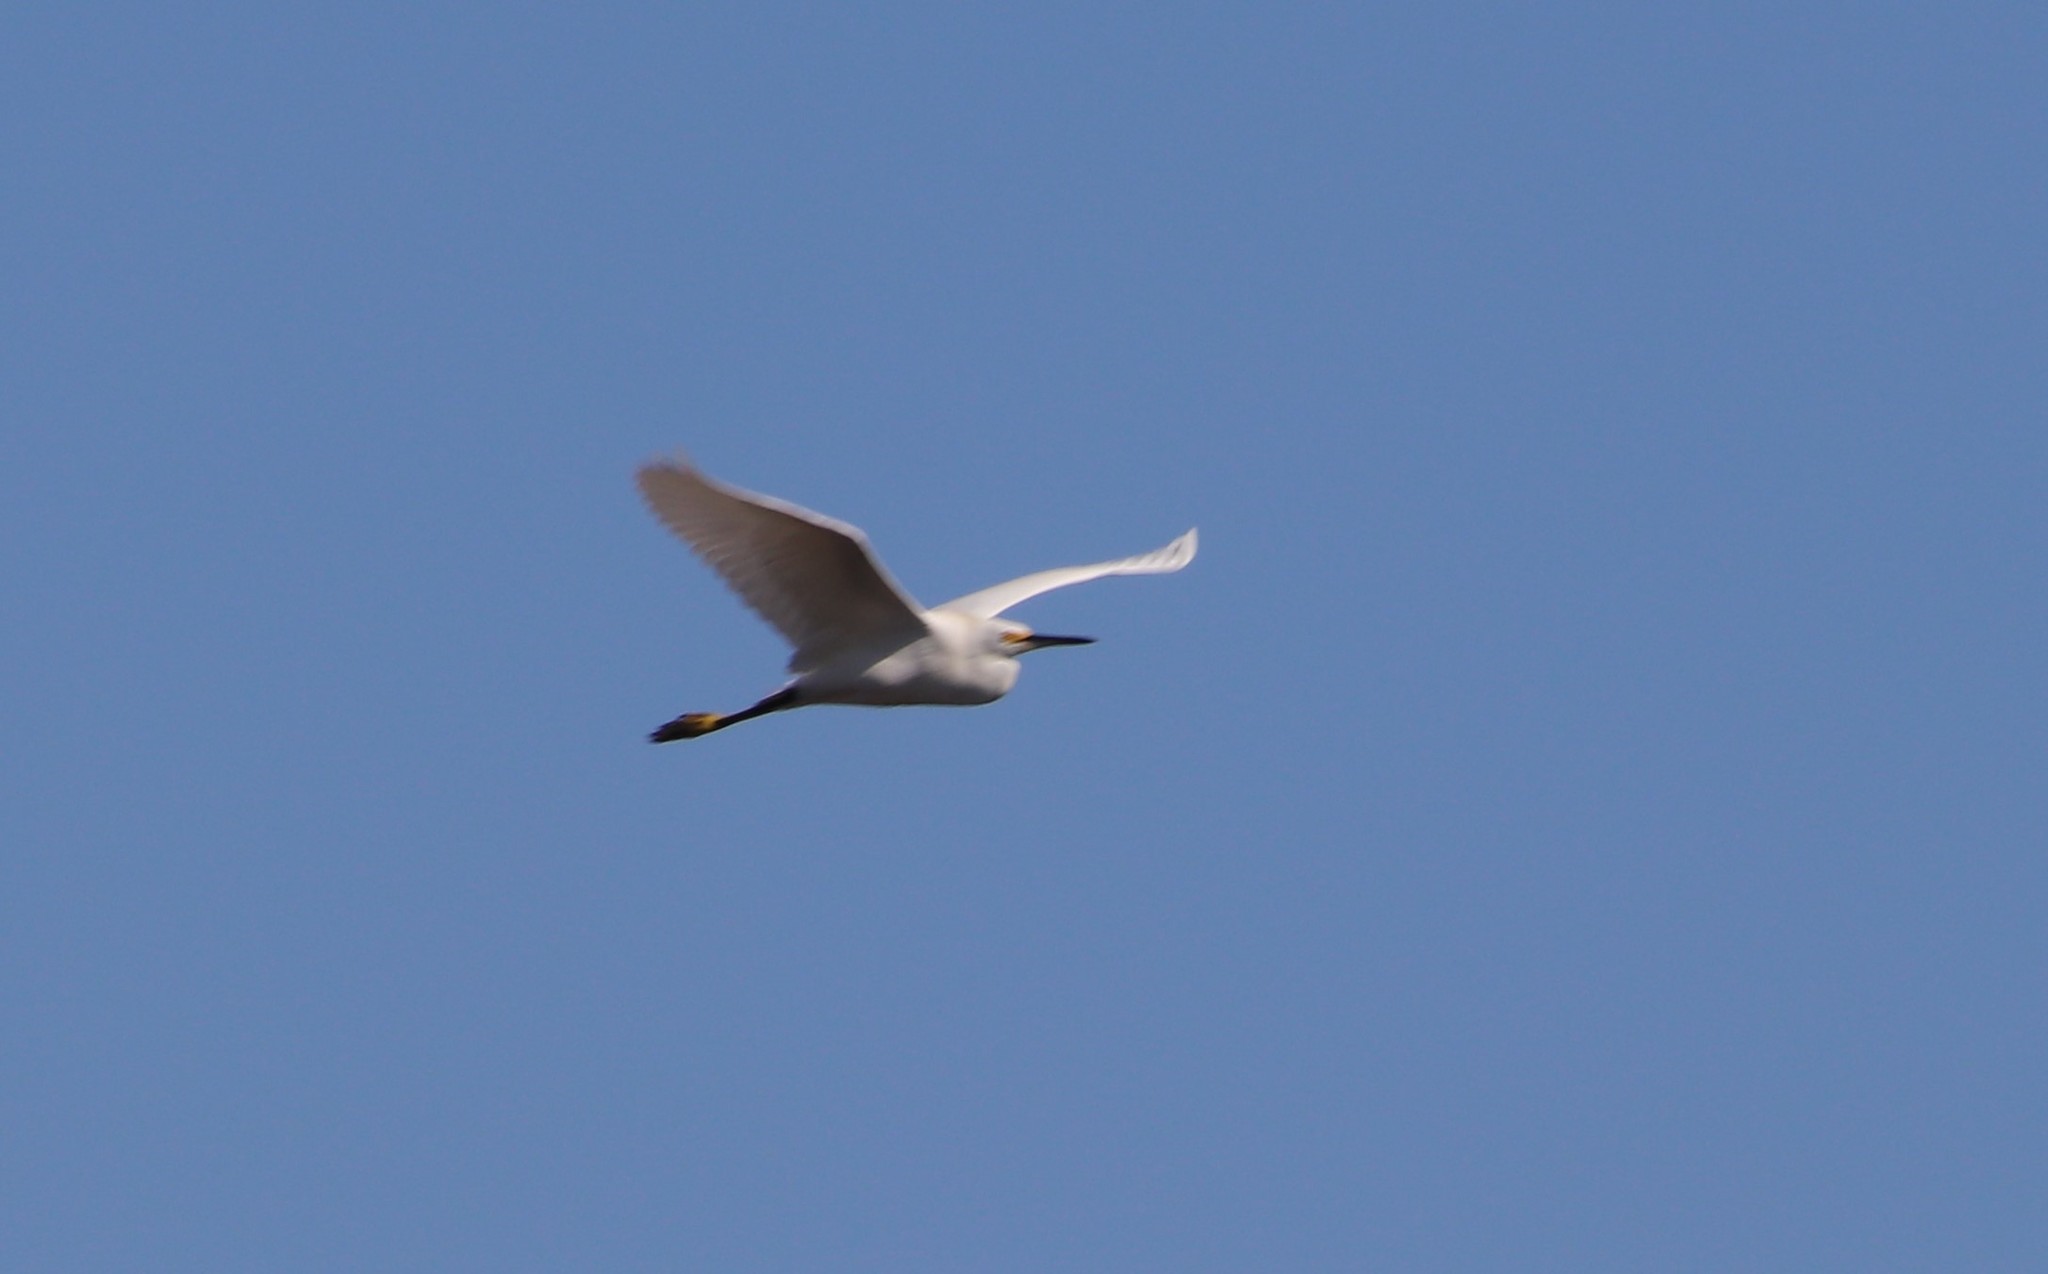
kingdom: Animalia
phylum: Chordata
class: Aves
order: Pelecaniformes
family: Ardeidae
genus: Egretta
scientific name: Egretta thula
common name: Snowy egret
